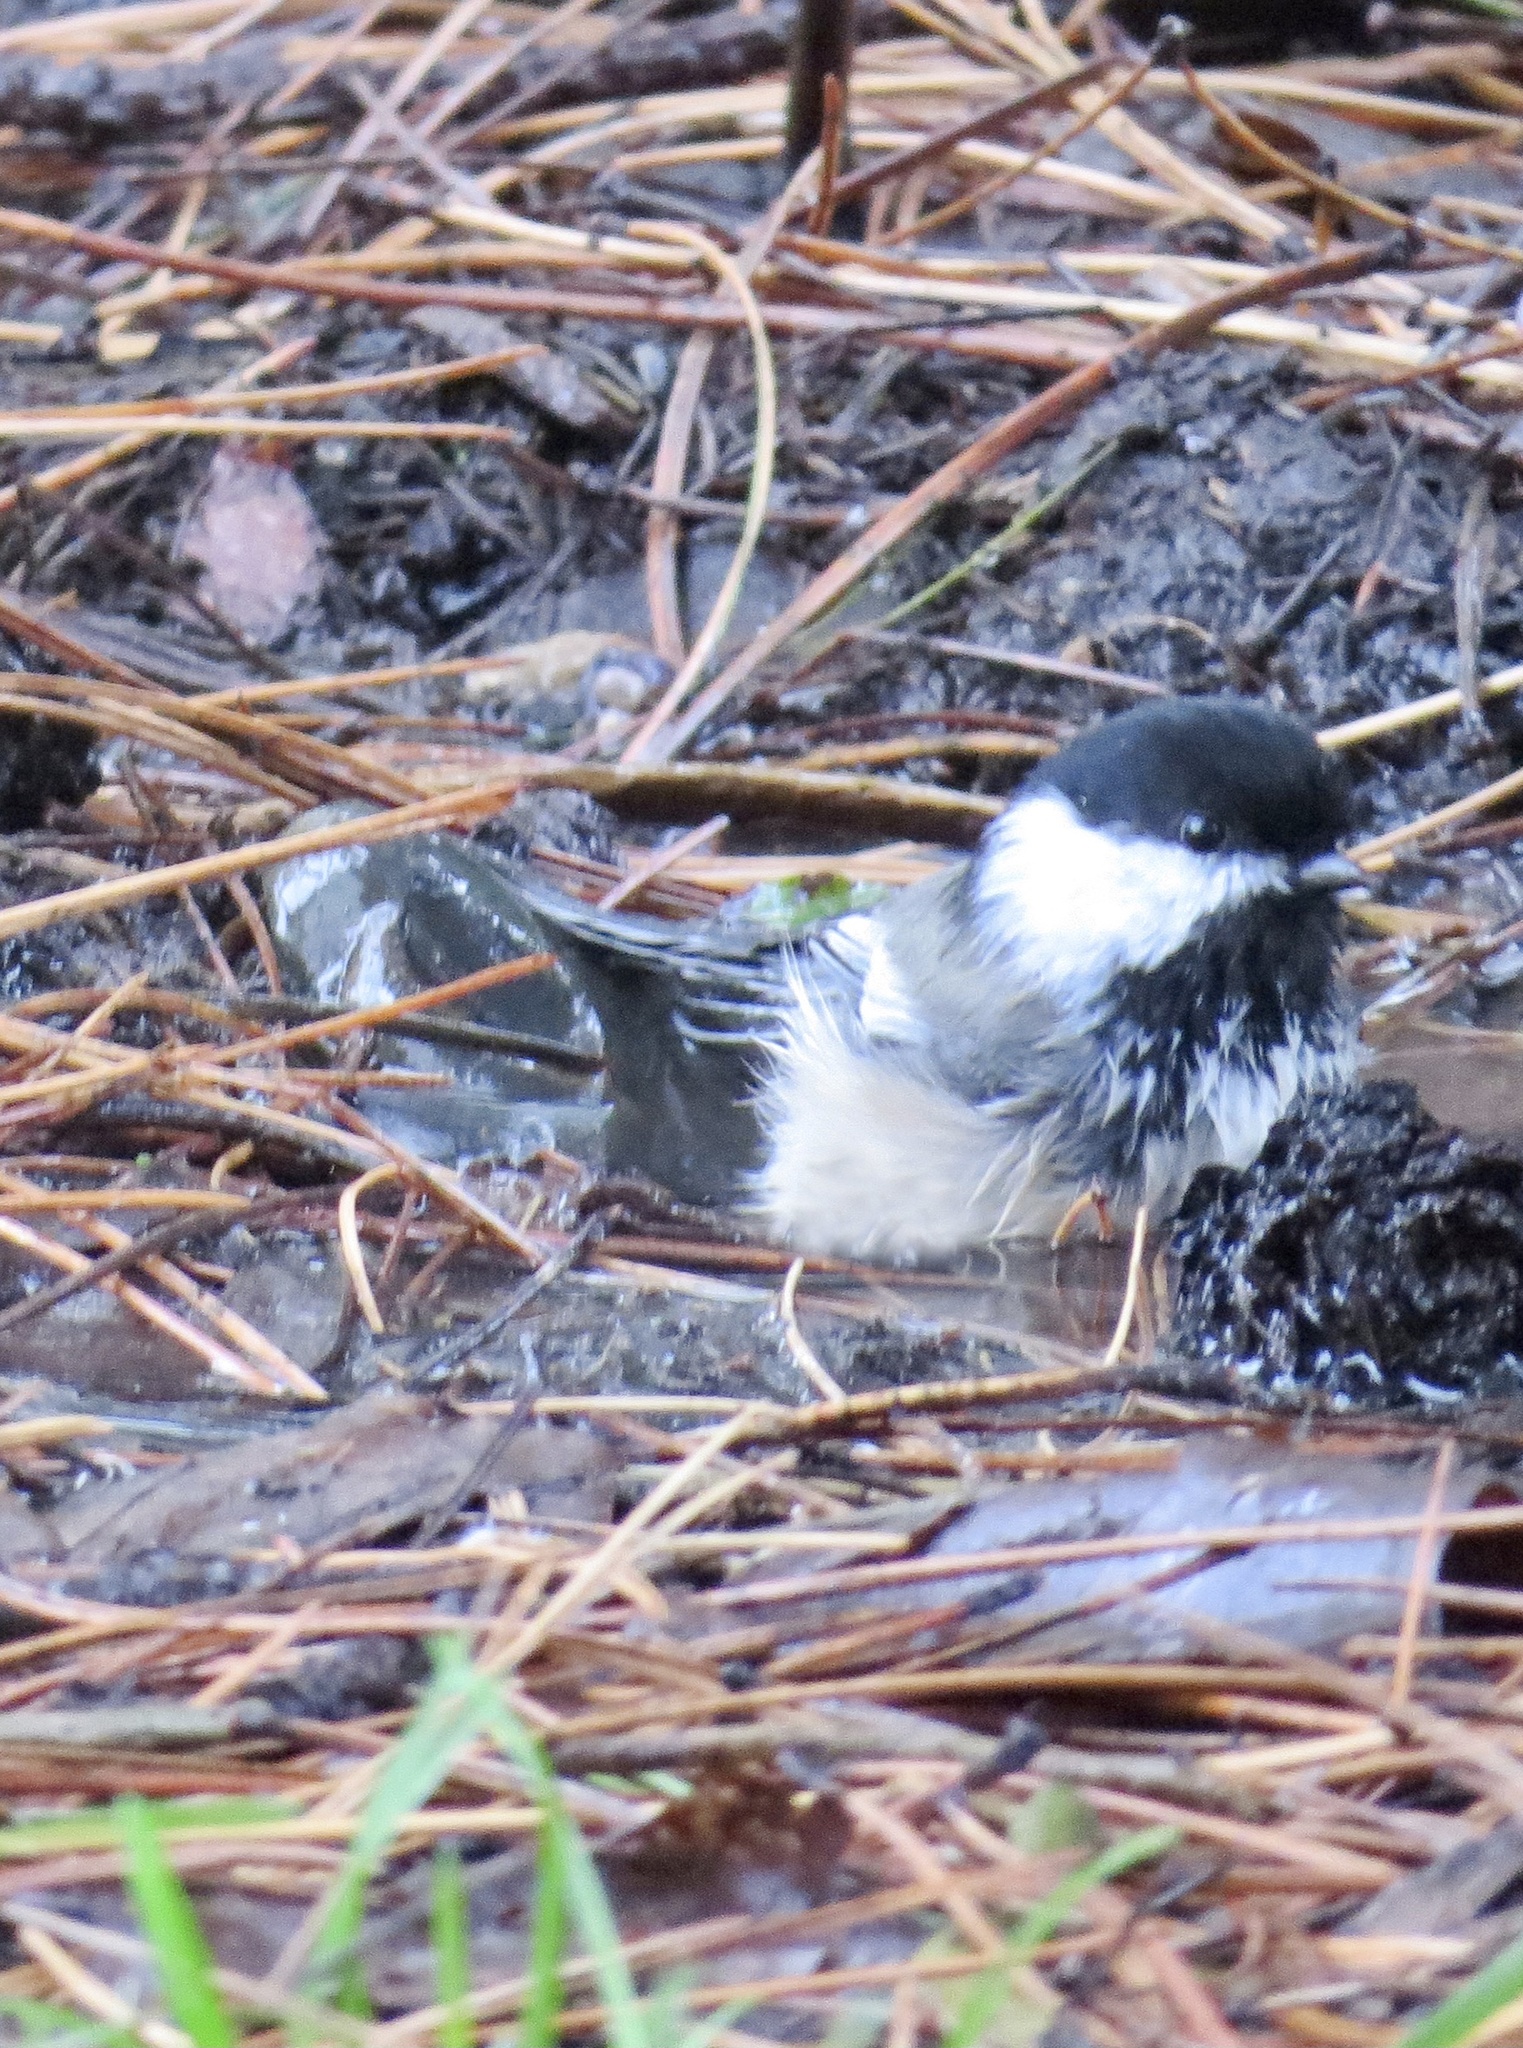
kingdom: Animalia
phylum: Chordata
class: Aves
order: Passeriformes
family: Paridae
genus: Poecile
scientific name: Poecile atricapillus
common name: Black-capped chickadee
